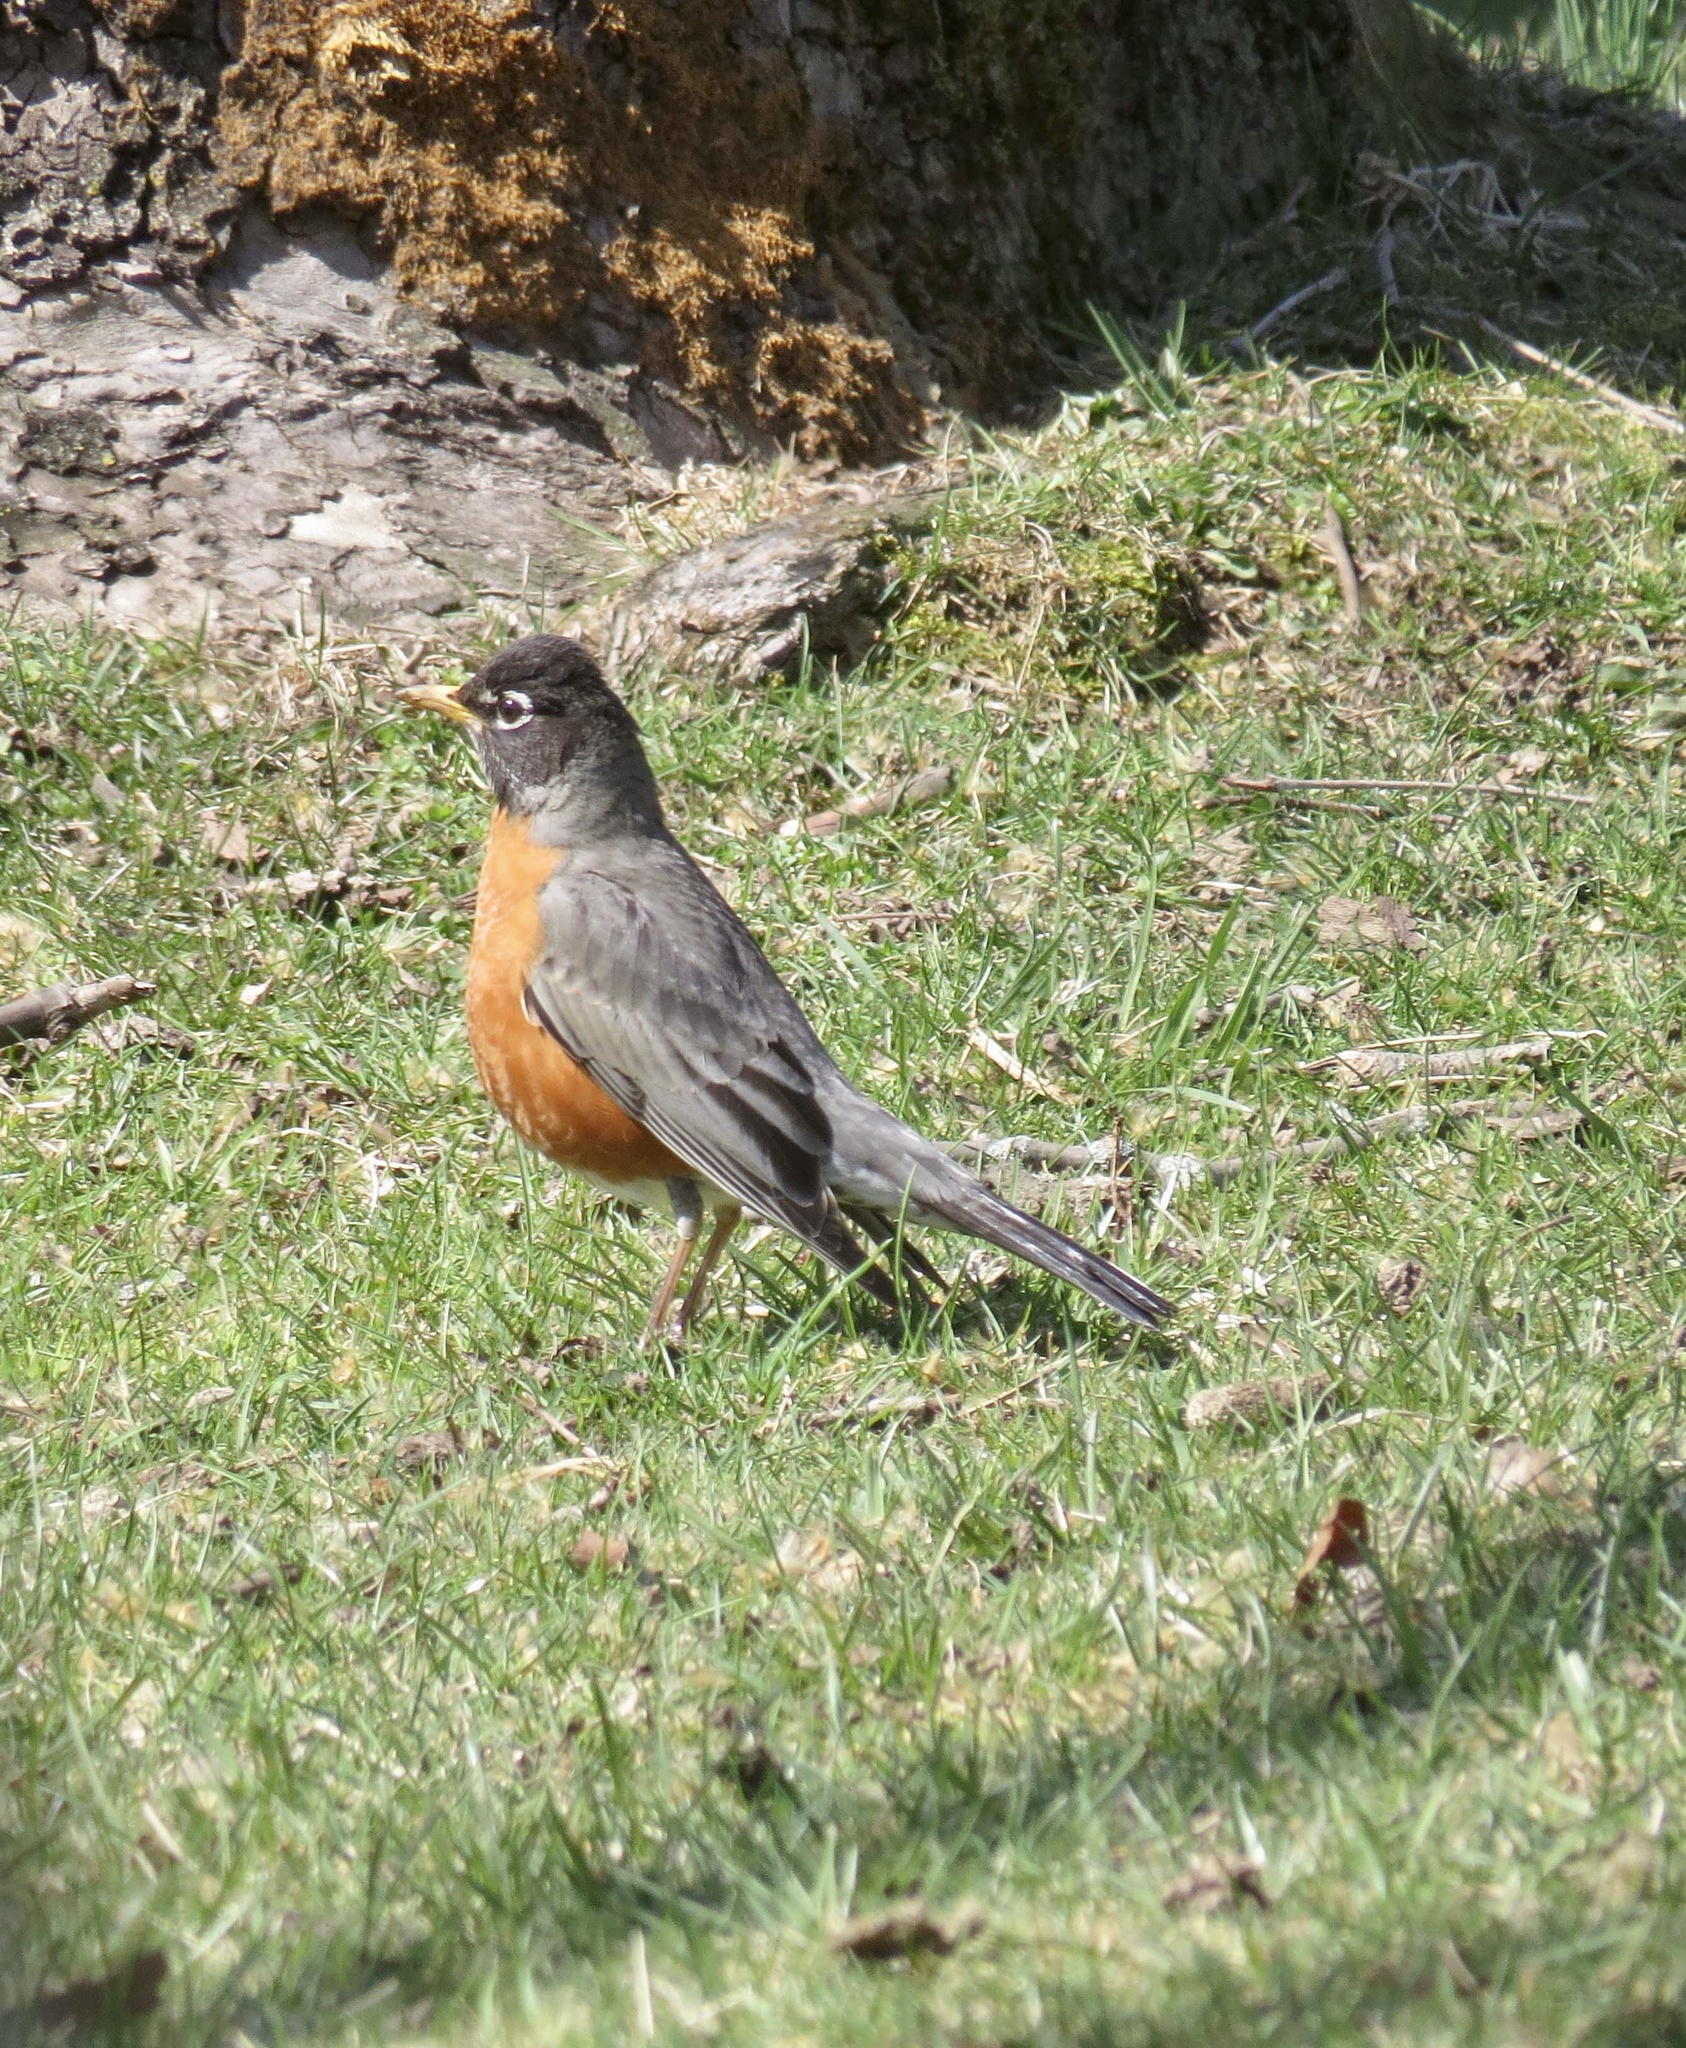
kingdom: Animalia
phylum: Chordata
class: Aves
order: Passeriformes
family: Turdidae
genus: Turdus
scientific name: Turdus migratorius
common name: American robin
